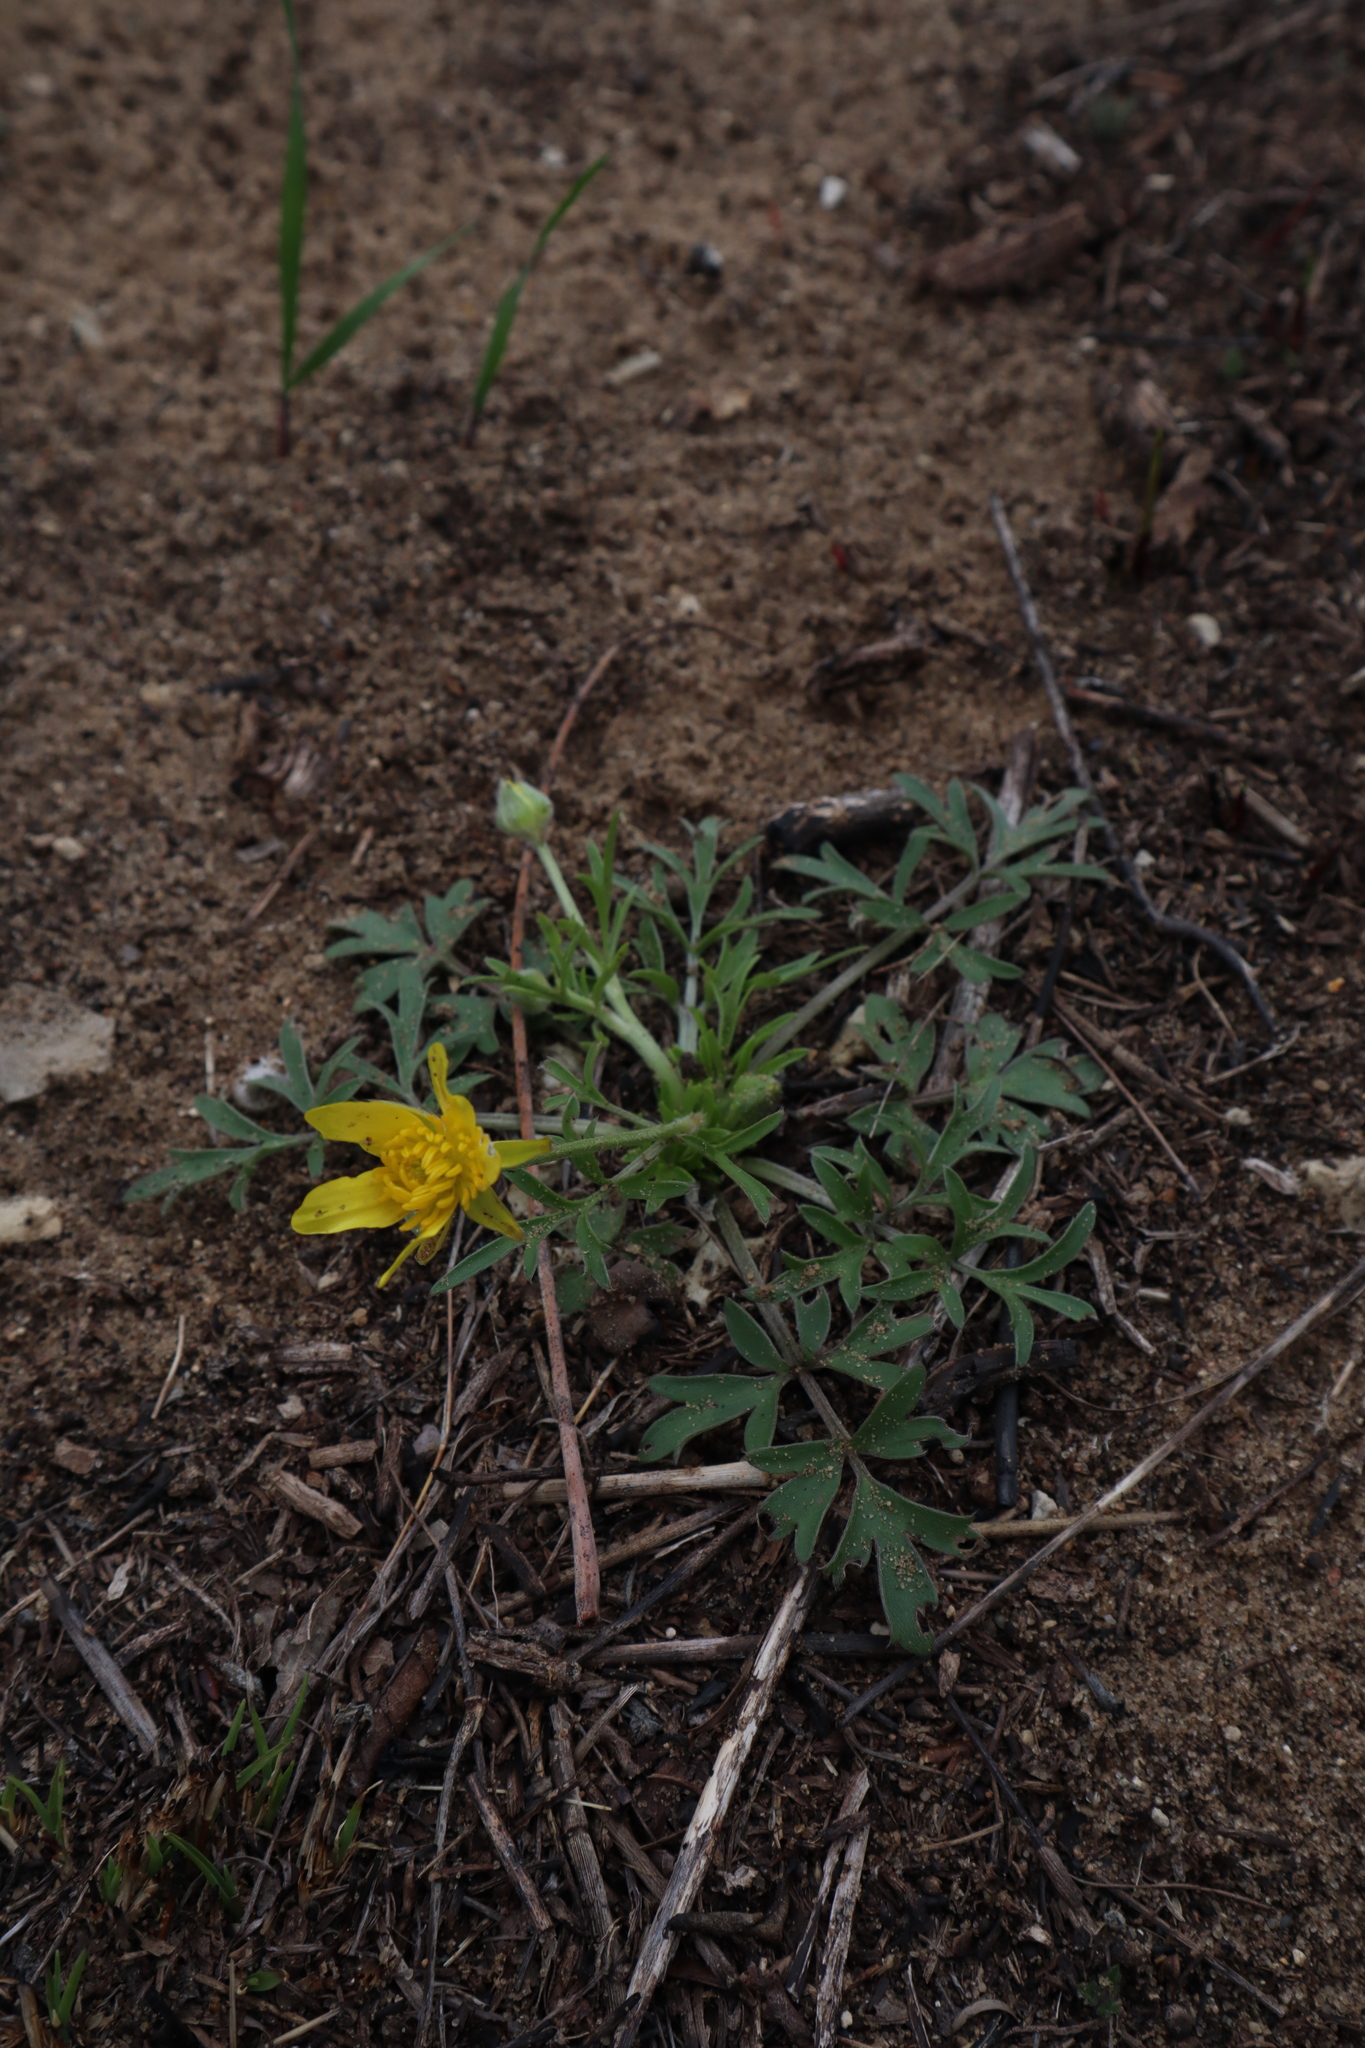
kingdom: Plantae
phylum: Tracheophyta
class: Magnoliopsida
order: Ranunculales
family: Ranunculaceae
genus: Ranunculus
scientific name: Ranunculus fascicularis
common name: Early buttercup
